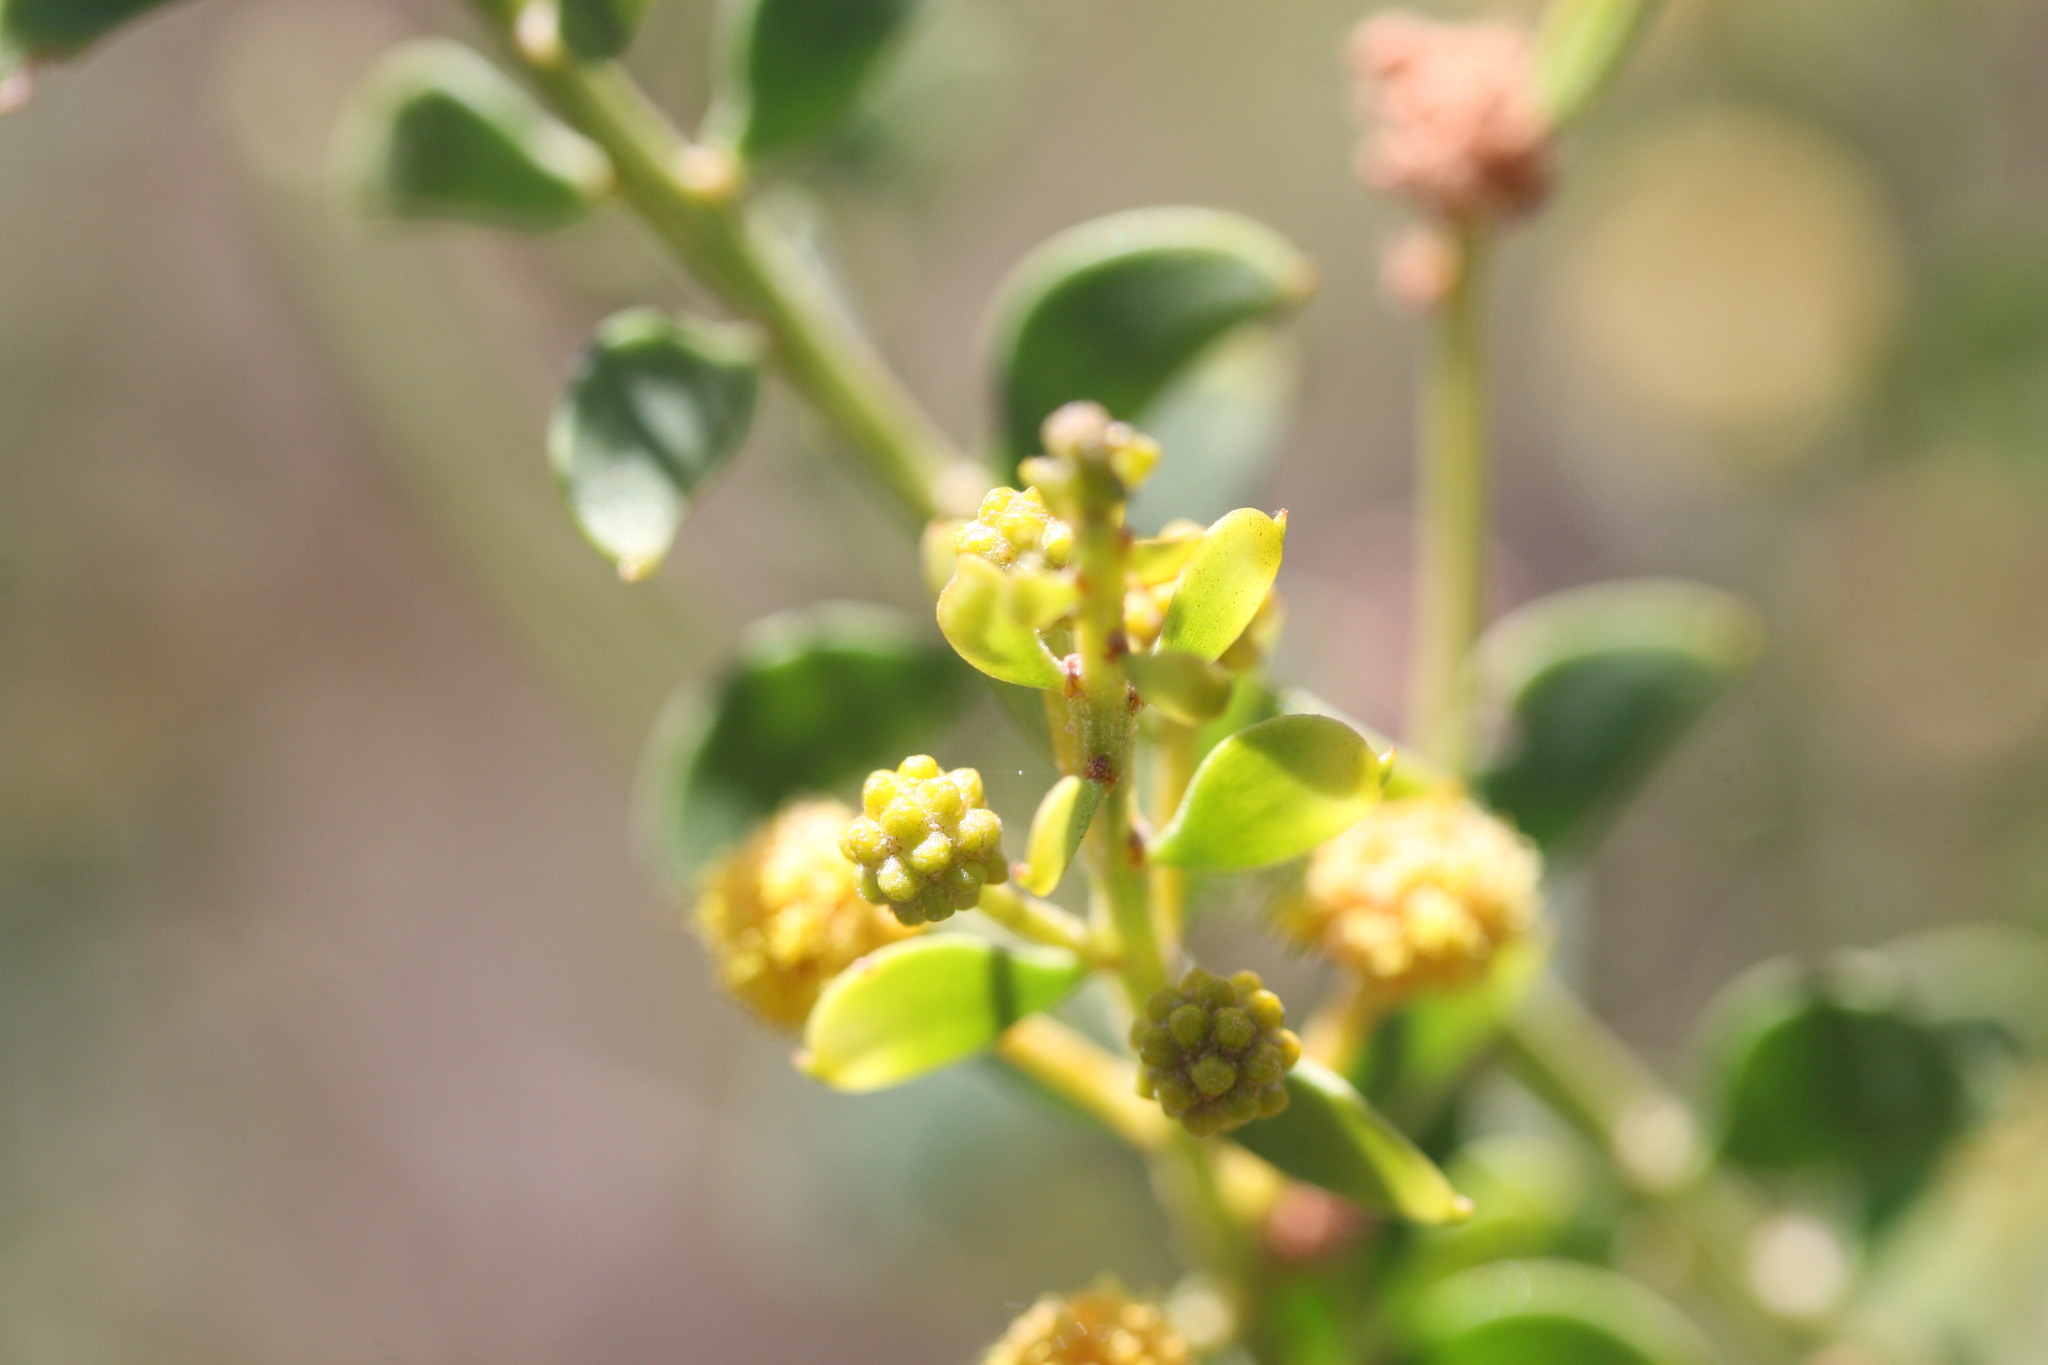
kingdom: Plantae
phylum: Tracheophyta
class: Magnoliopsida
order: Fabales
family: Fabaceae
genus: Acacia
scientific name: Acacia translucens
